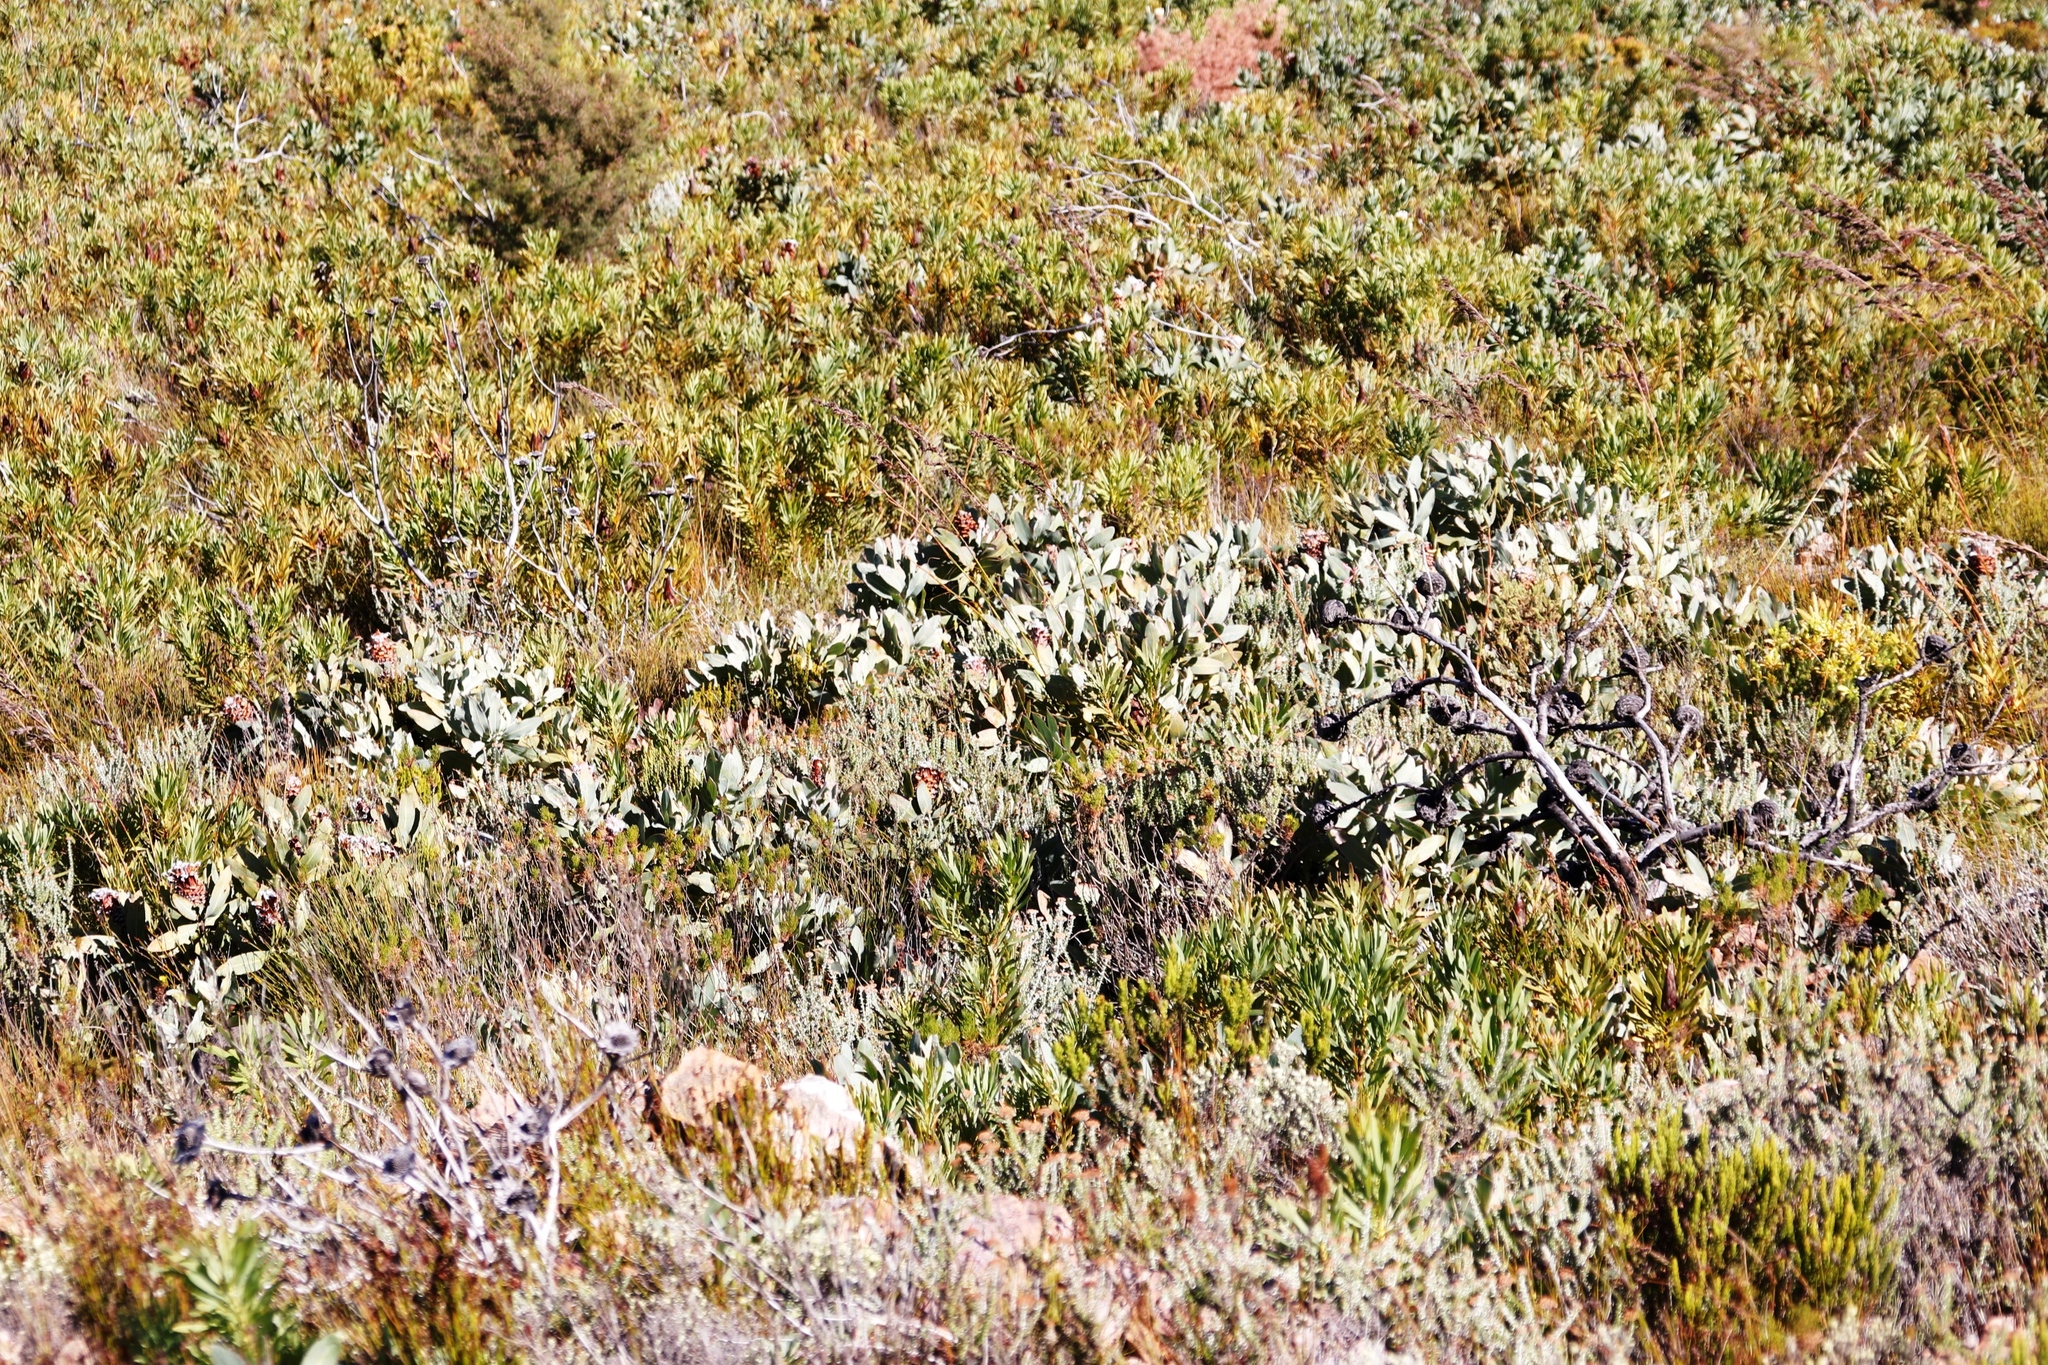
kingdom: Plantae
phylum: Tracheophyta
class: Magnoliopsida
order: Proteales
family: Proteaceae
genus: Protea
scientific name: Protea magnifica
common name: Bearded sugarbush
